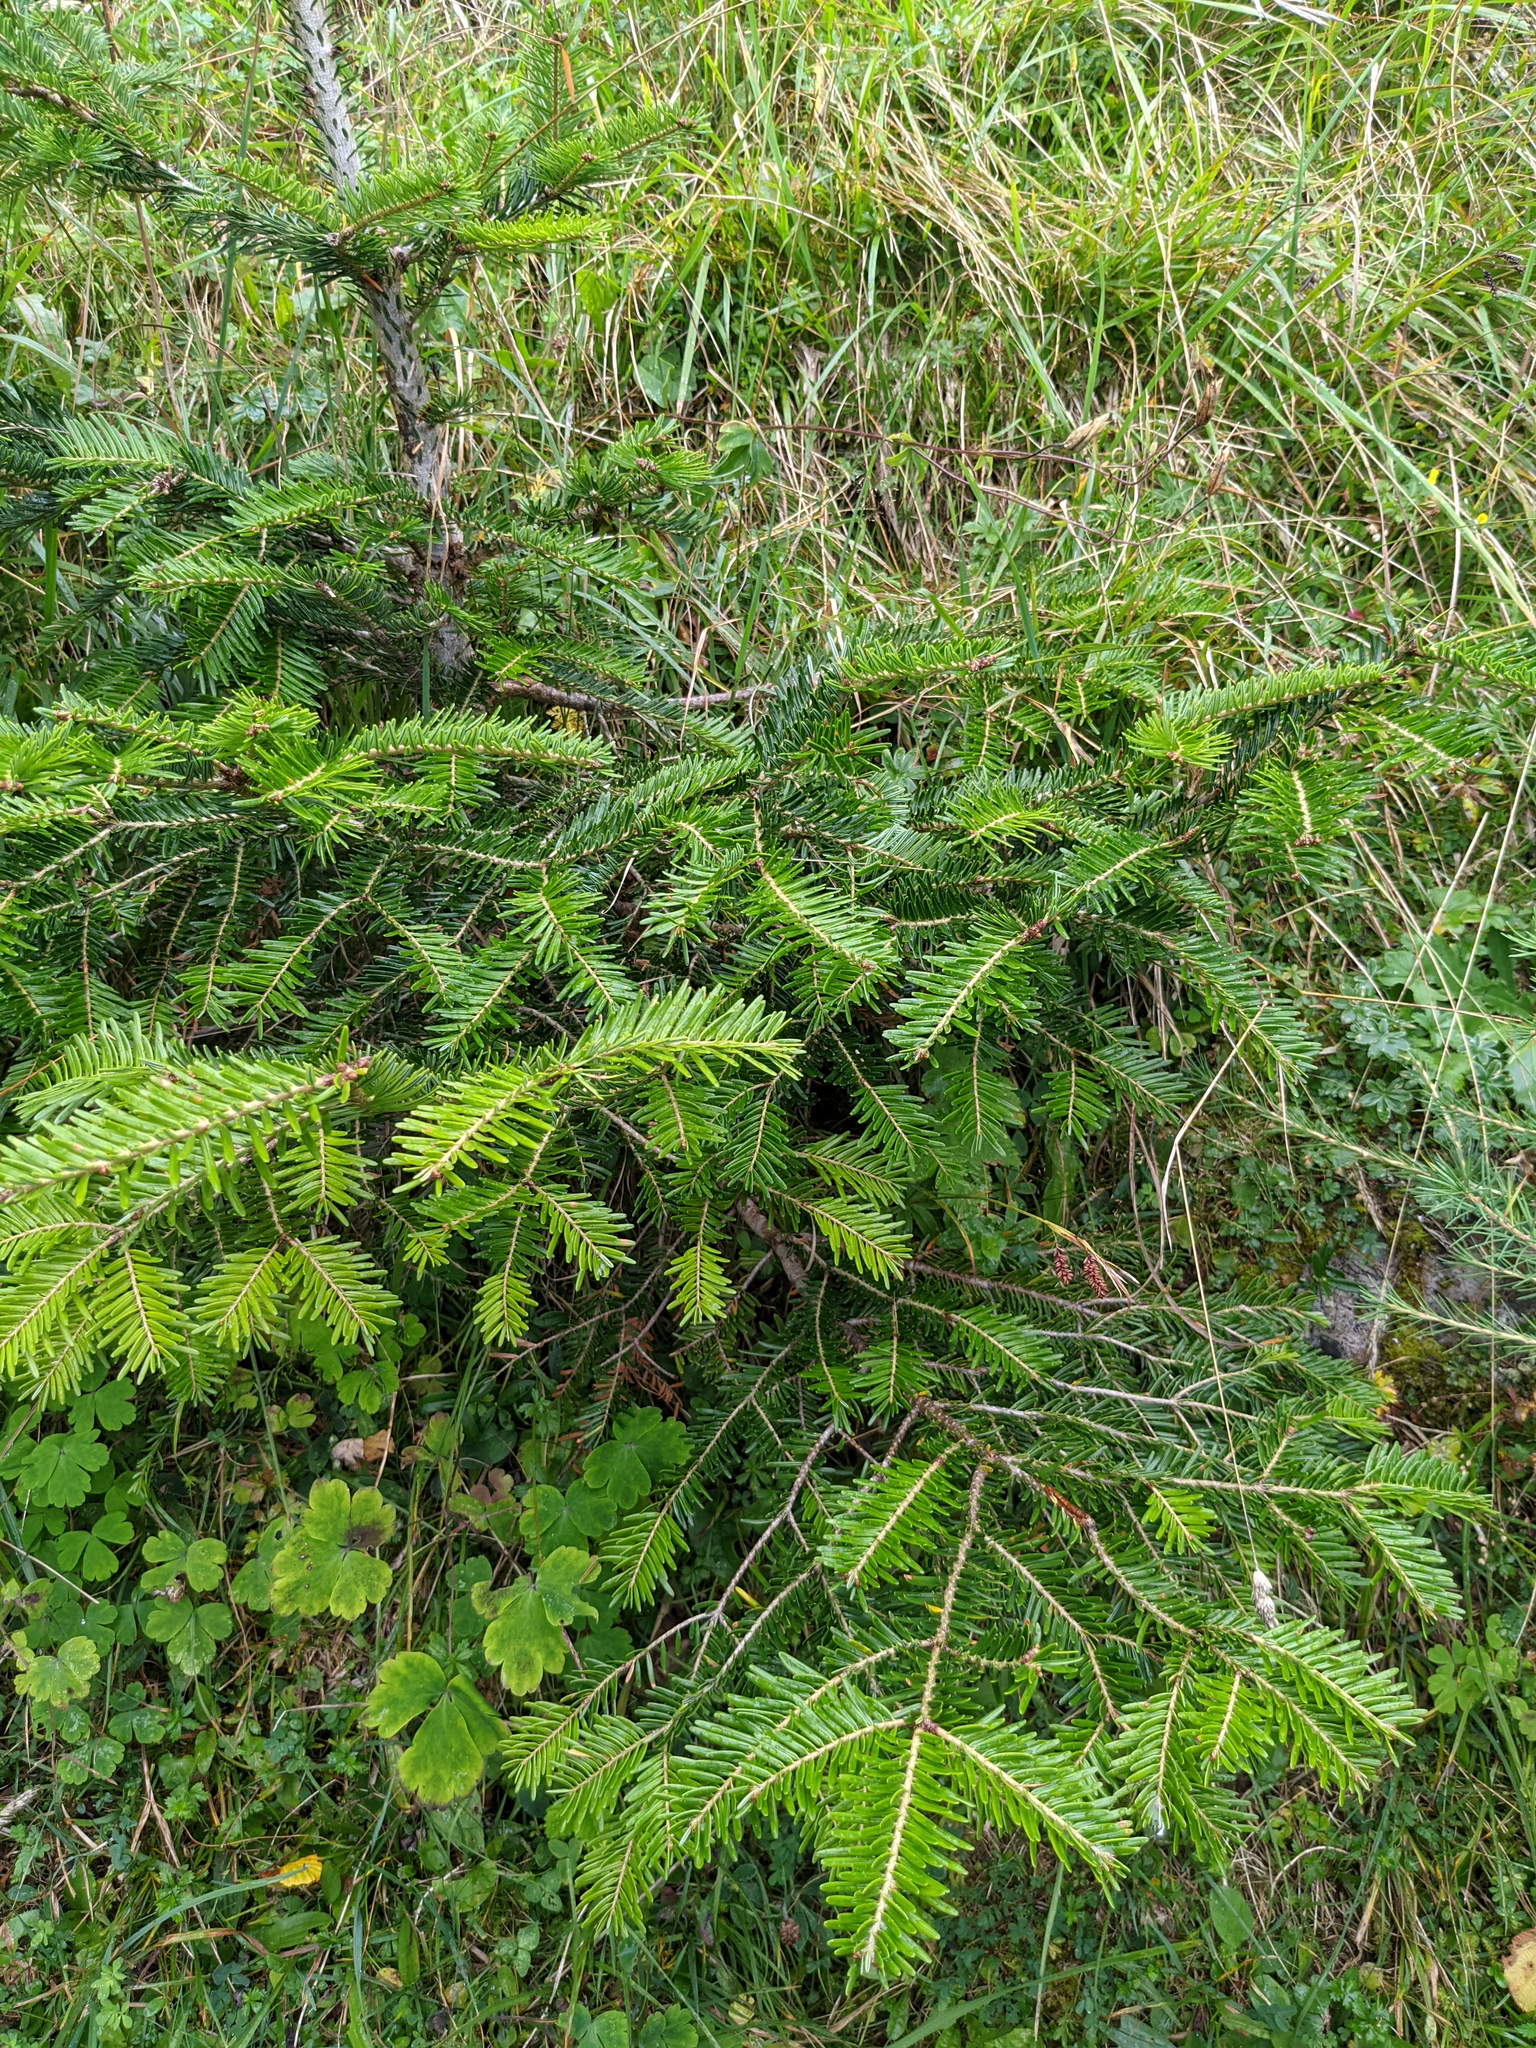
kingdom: Plantae
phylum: Tracheophyta
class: Pinopsida
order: Pinales
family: Pinaceae
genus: Abies
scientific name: Abies alba
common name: Silver fir
